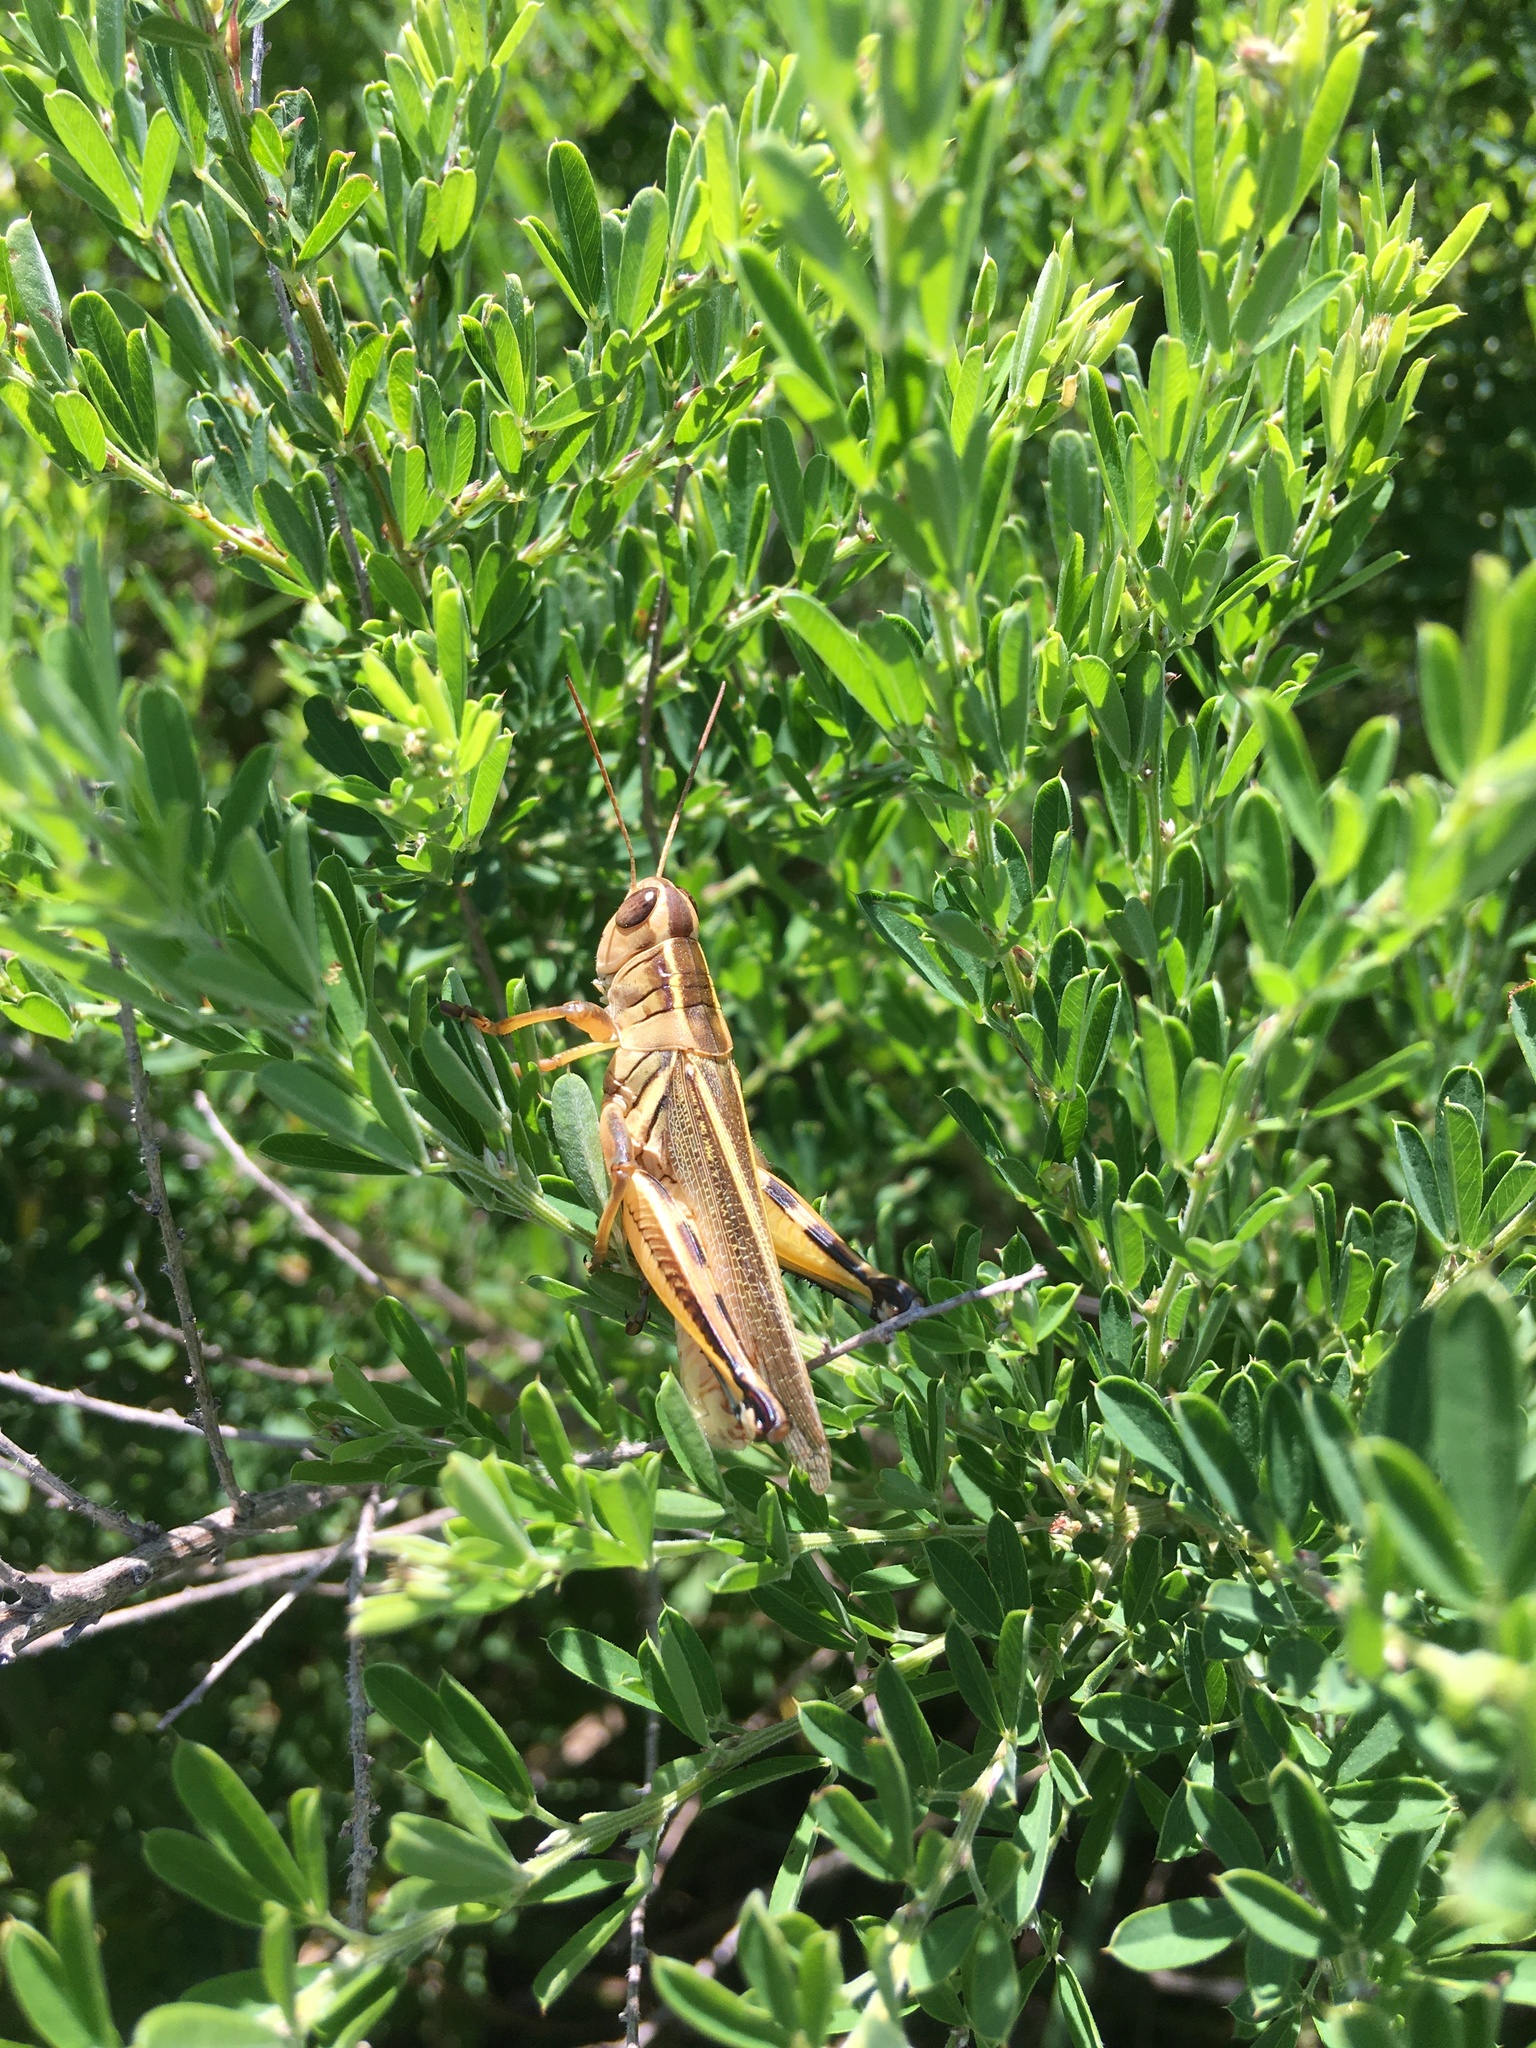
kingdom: Animalia
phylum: Arthropoda
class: Insecta
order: Orthoptera
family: Acrididae
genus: Melanoplus
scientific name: Melanoplus bivittatus
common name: Two-striped grasshopper
